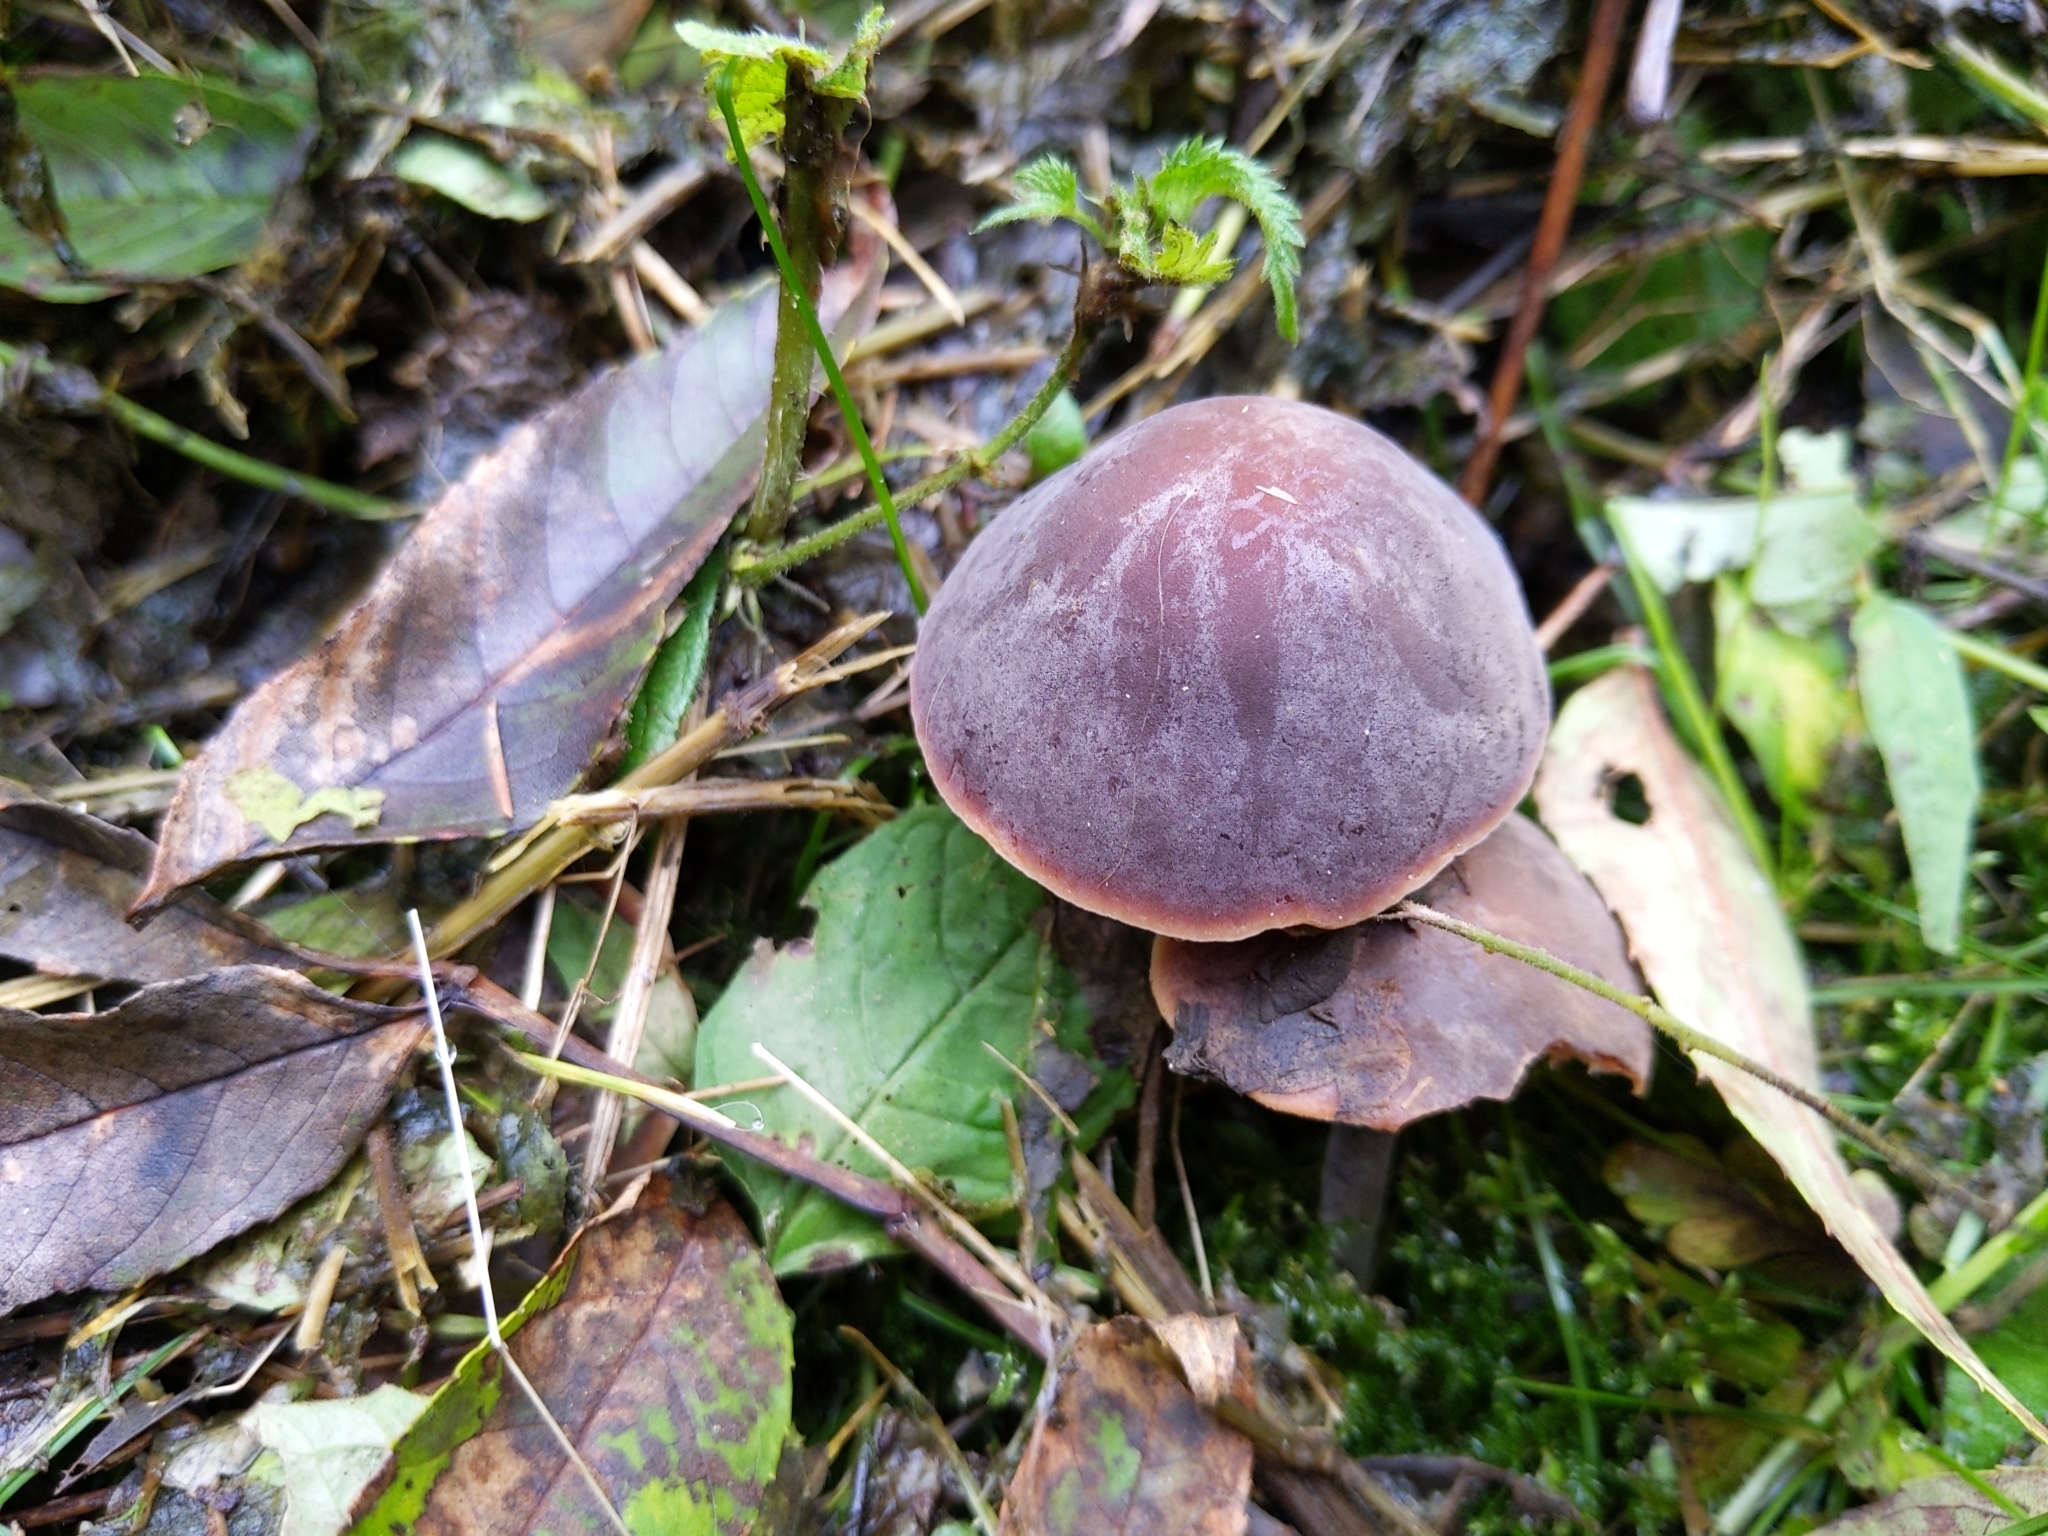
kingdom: Fungi
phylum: Basidiomycota
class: Agaricomycetes
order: Agaricales
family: Macrocystidiaceae
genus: Macrocystidia
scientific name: Macrocystidia cucumis
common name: Cucumber cap
